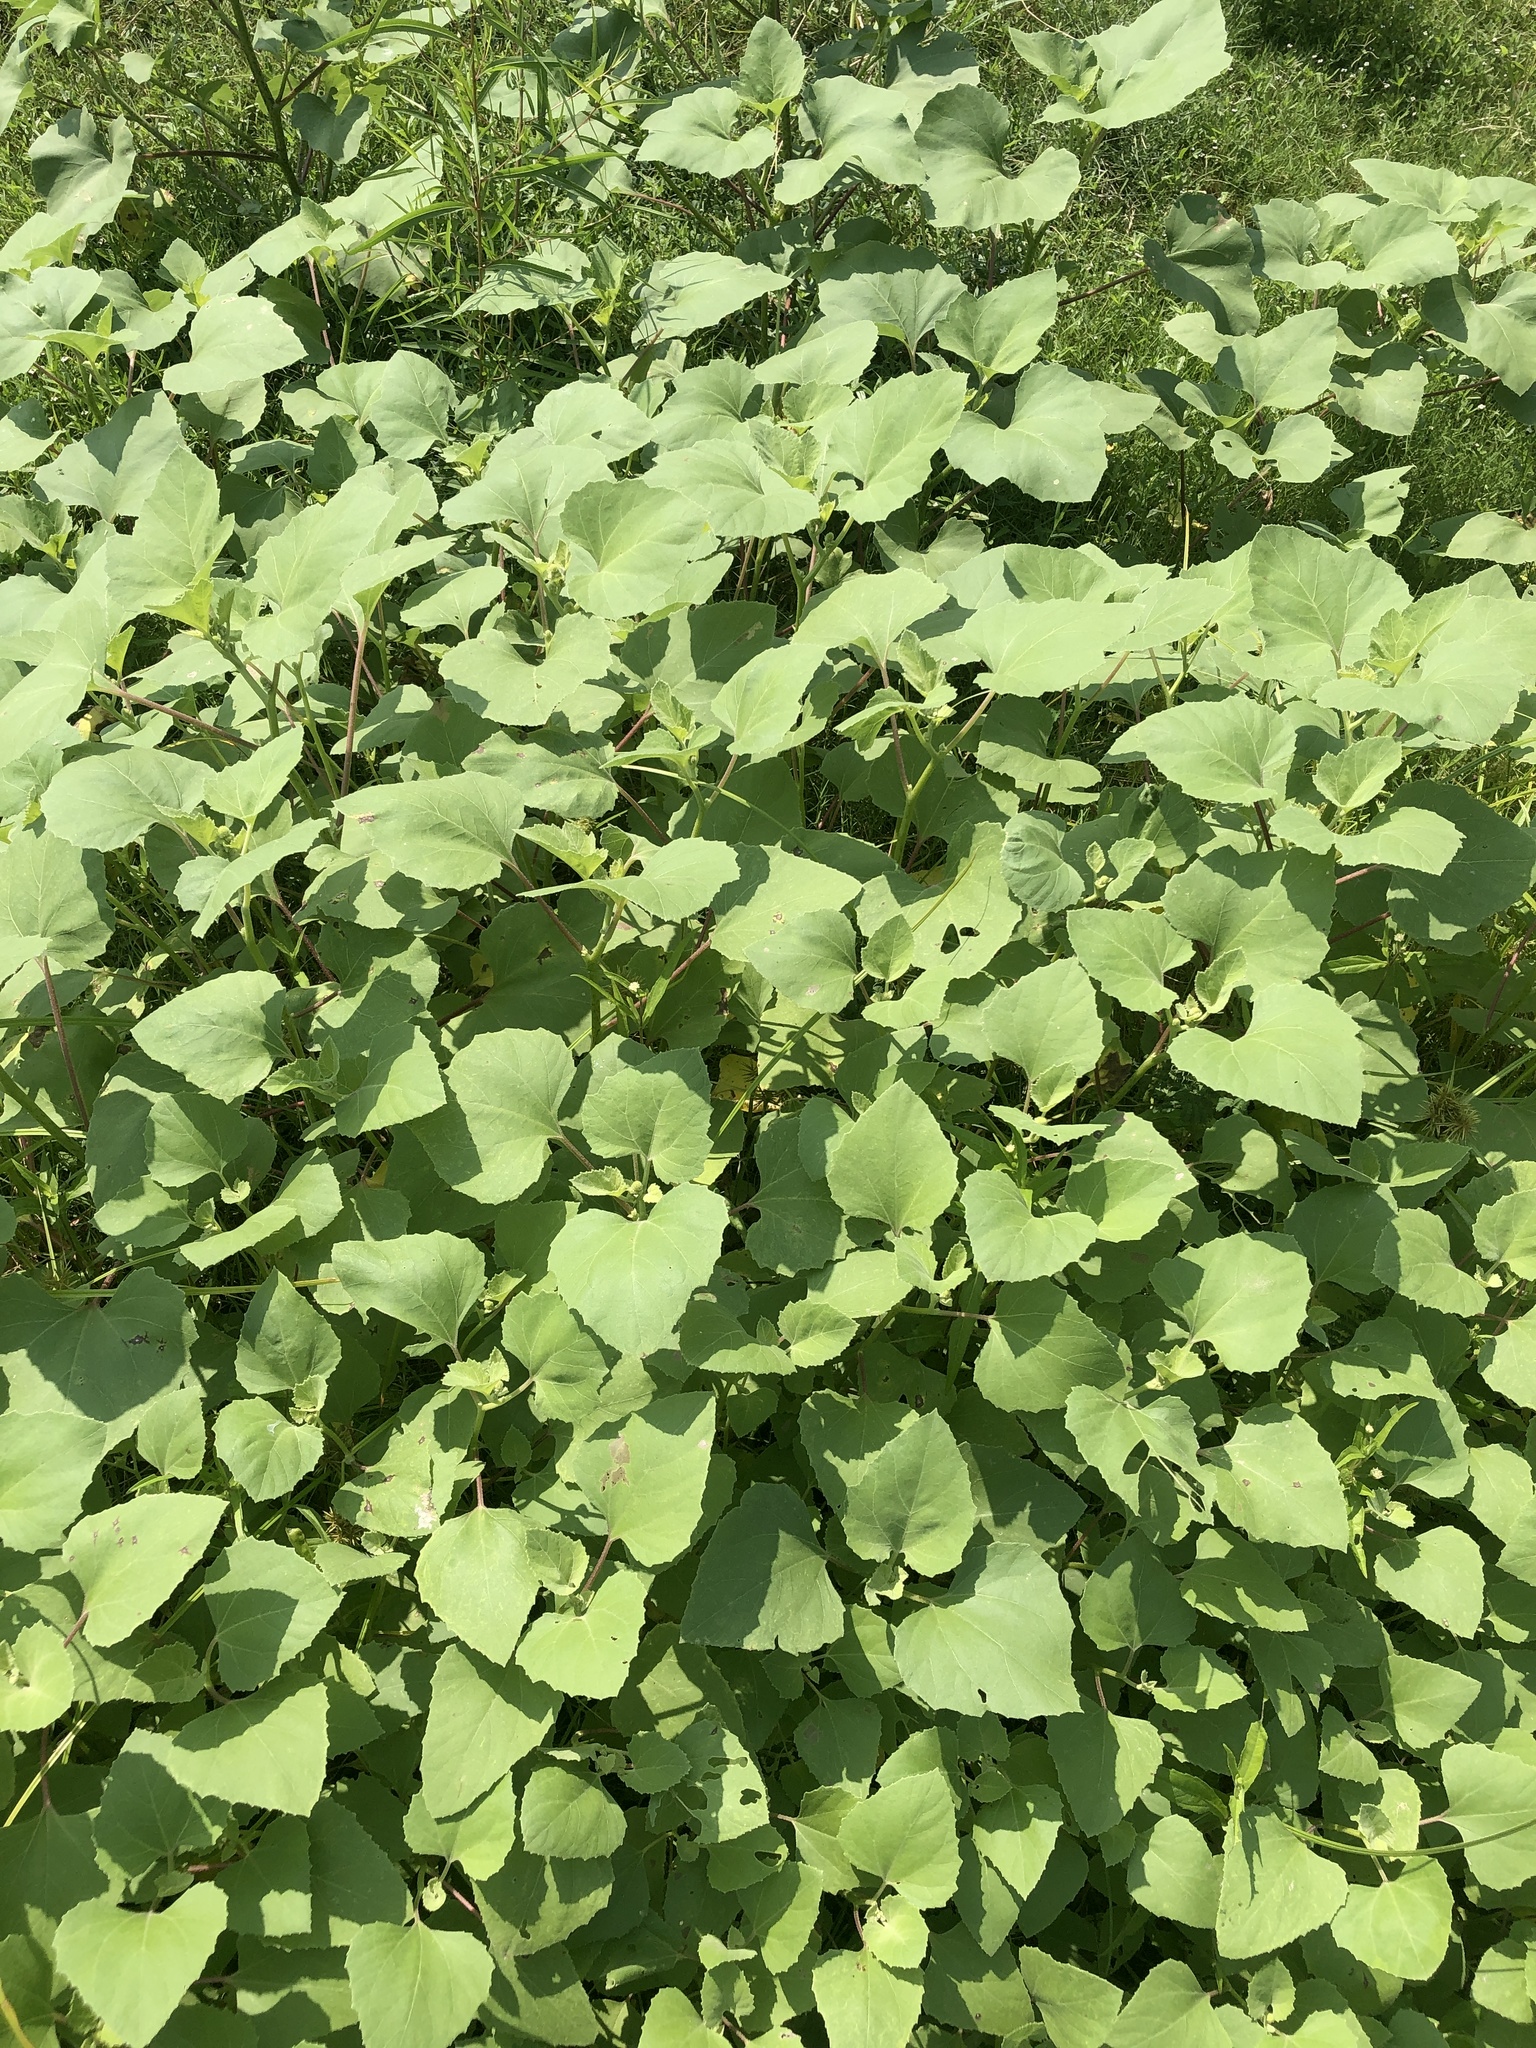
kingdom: Plantae
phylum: Tracheophyta
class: Magnoliopsida
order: Asterales
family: Asteraceae
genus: Xanthium
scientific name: Xanthium strumarium
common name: Rough cocklebur
